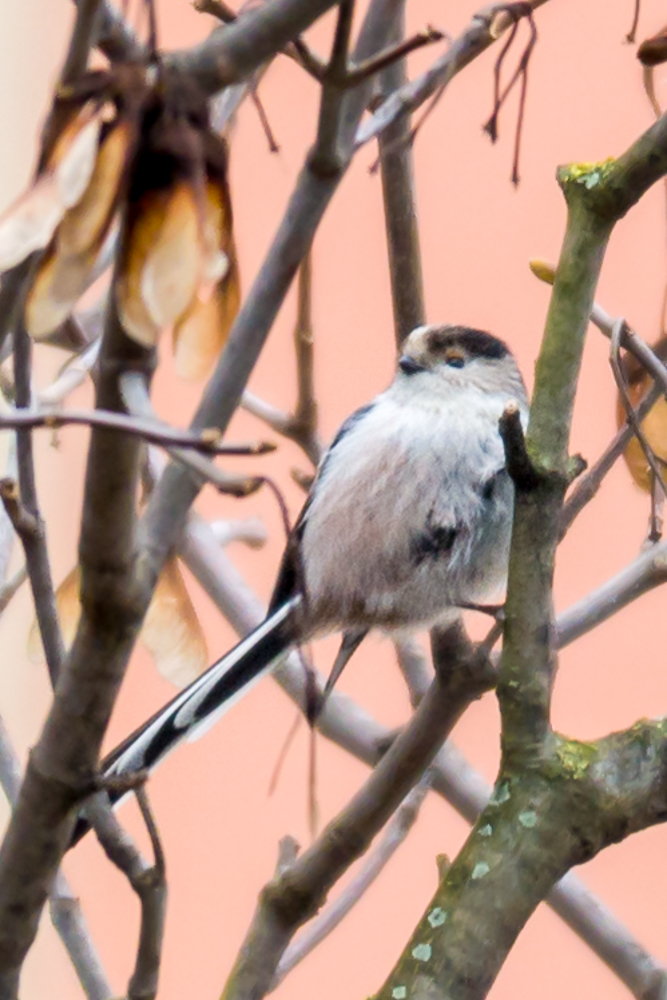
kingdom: Animalia
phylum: Chordata
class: Aves
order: Passeriformes
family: Aegithalidae
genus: Aegithalos
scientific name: Aegithalos caudatus
